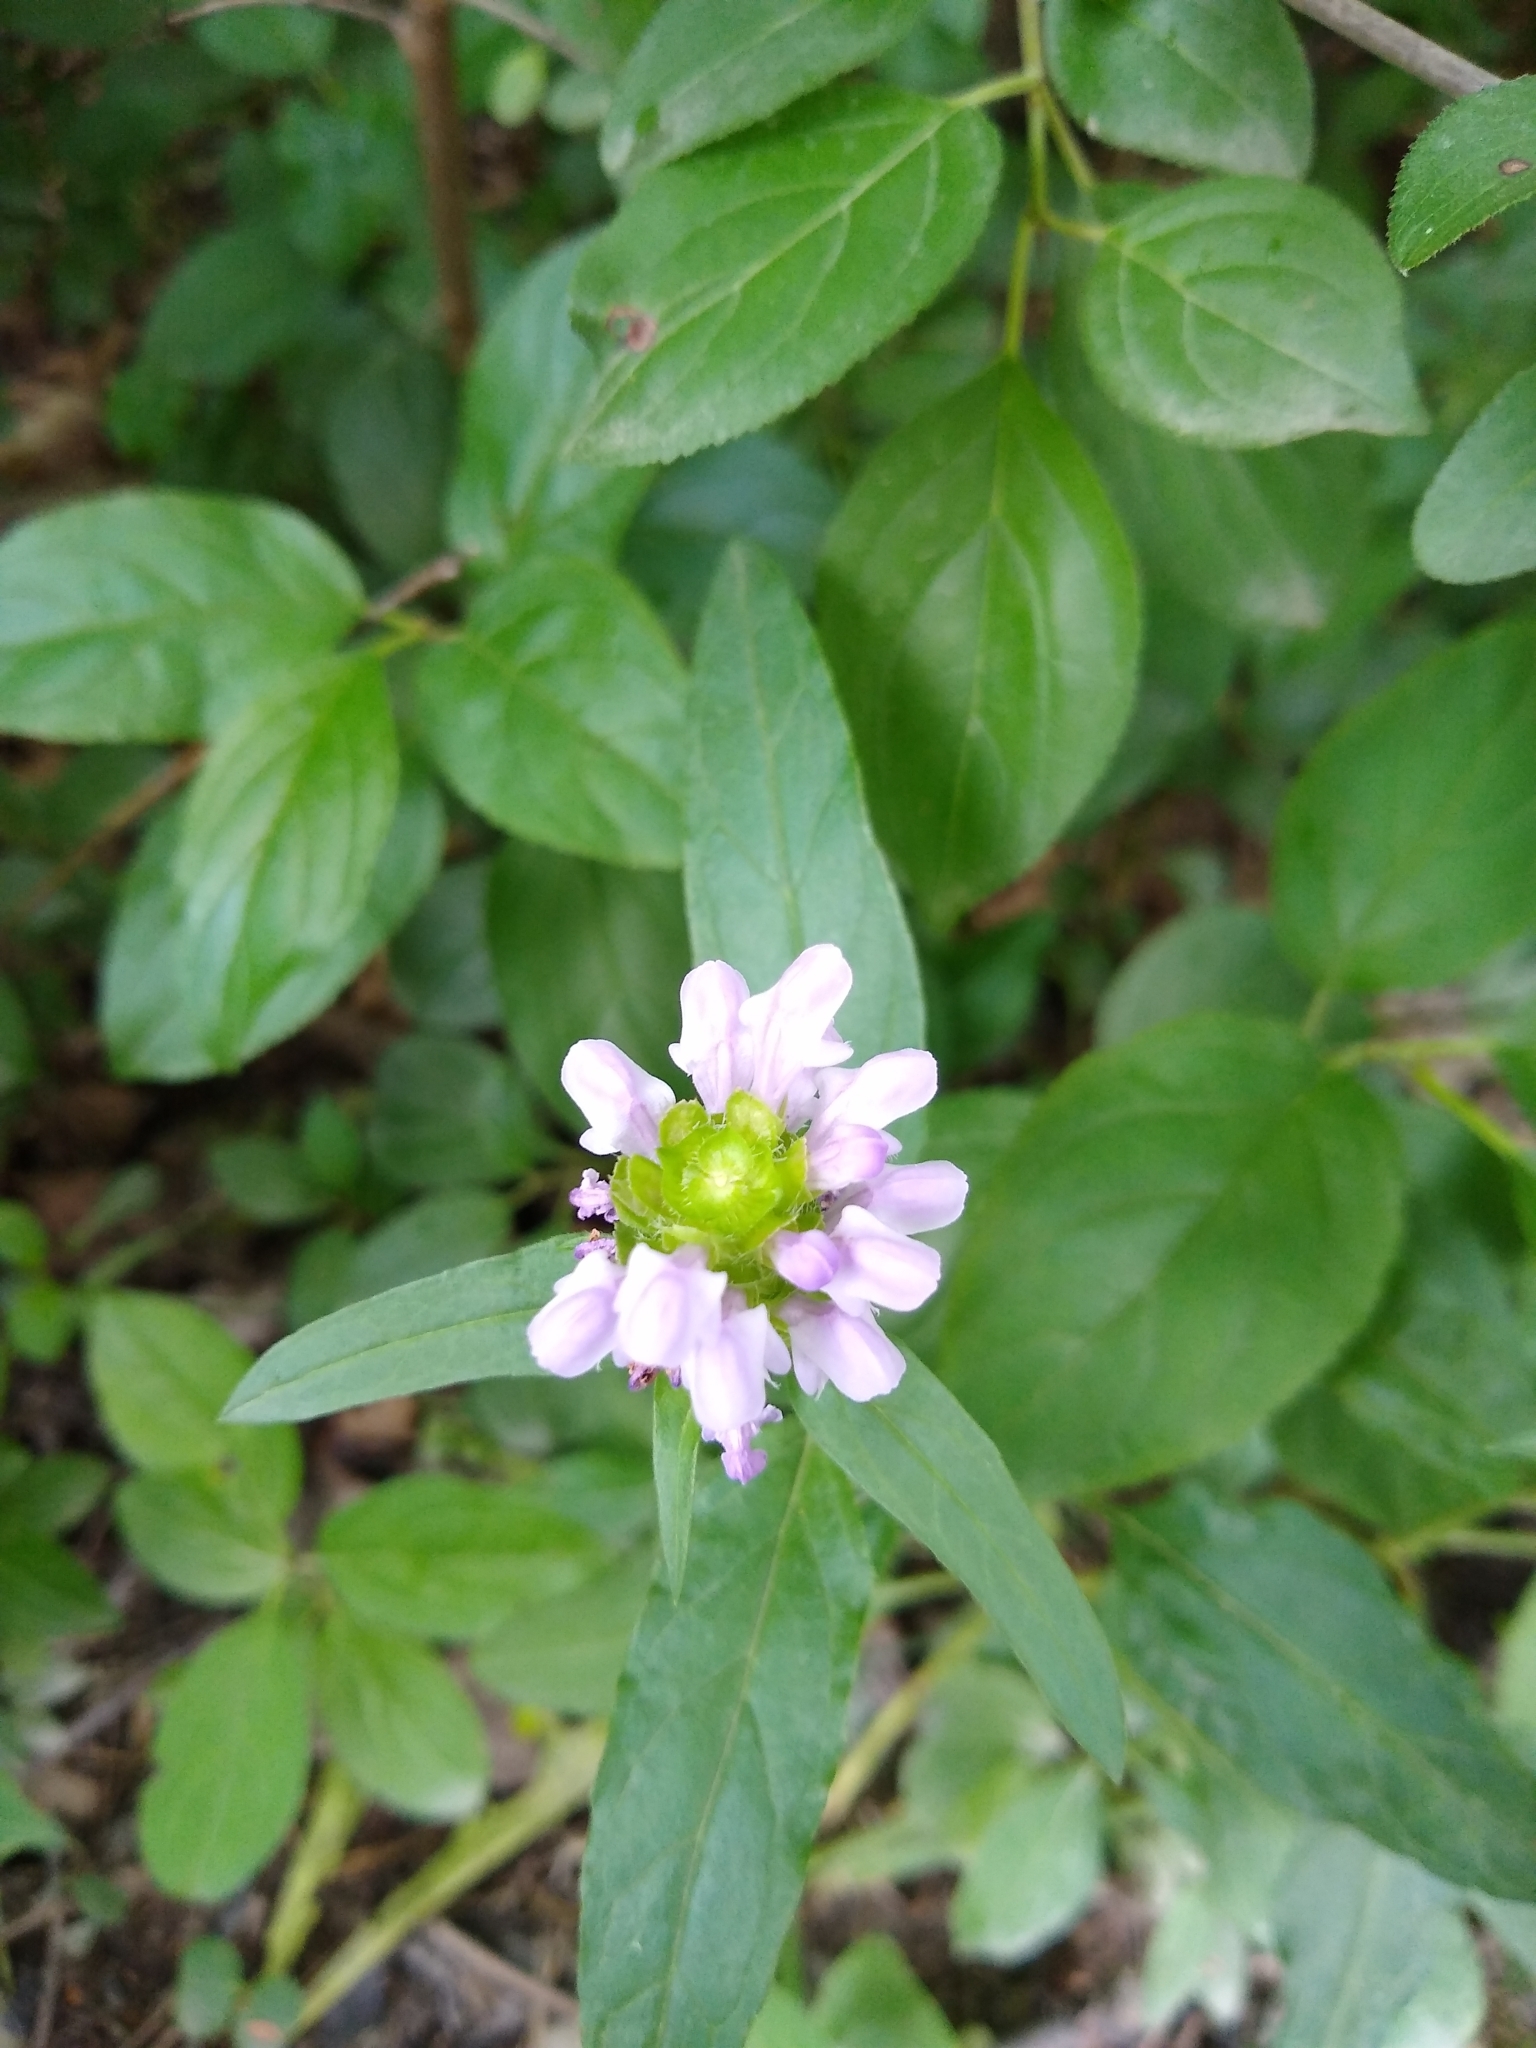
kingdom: Plantae
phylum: Tracheophyta
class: Magnoliopsida
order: Lamiales
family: Lamiaceae
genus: Prunella
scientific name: Prunella vulgaris
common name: Heal-all
